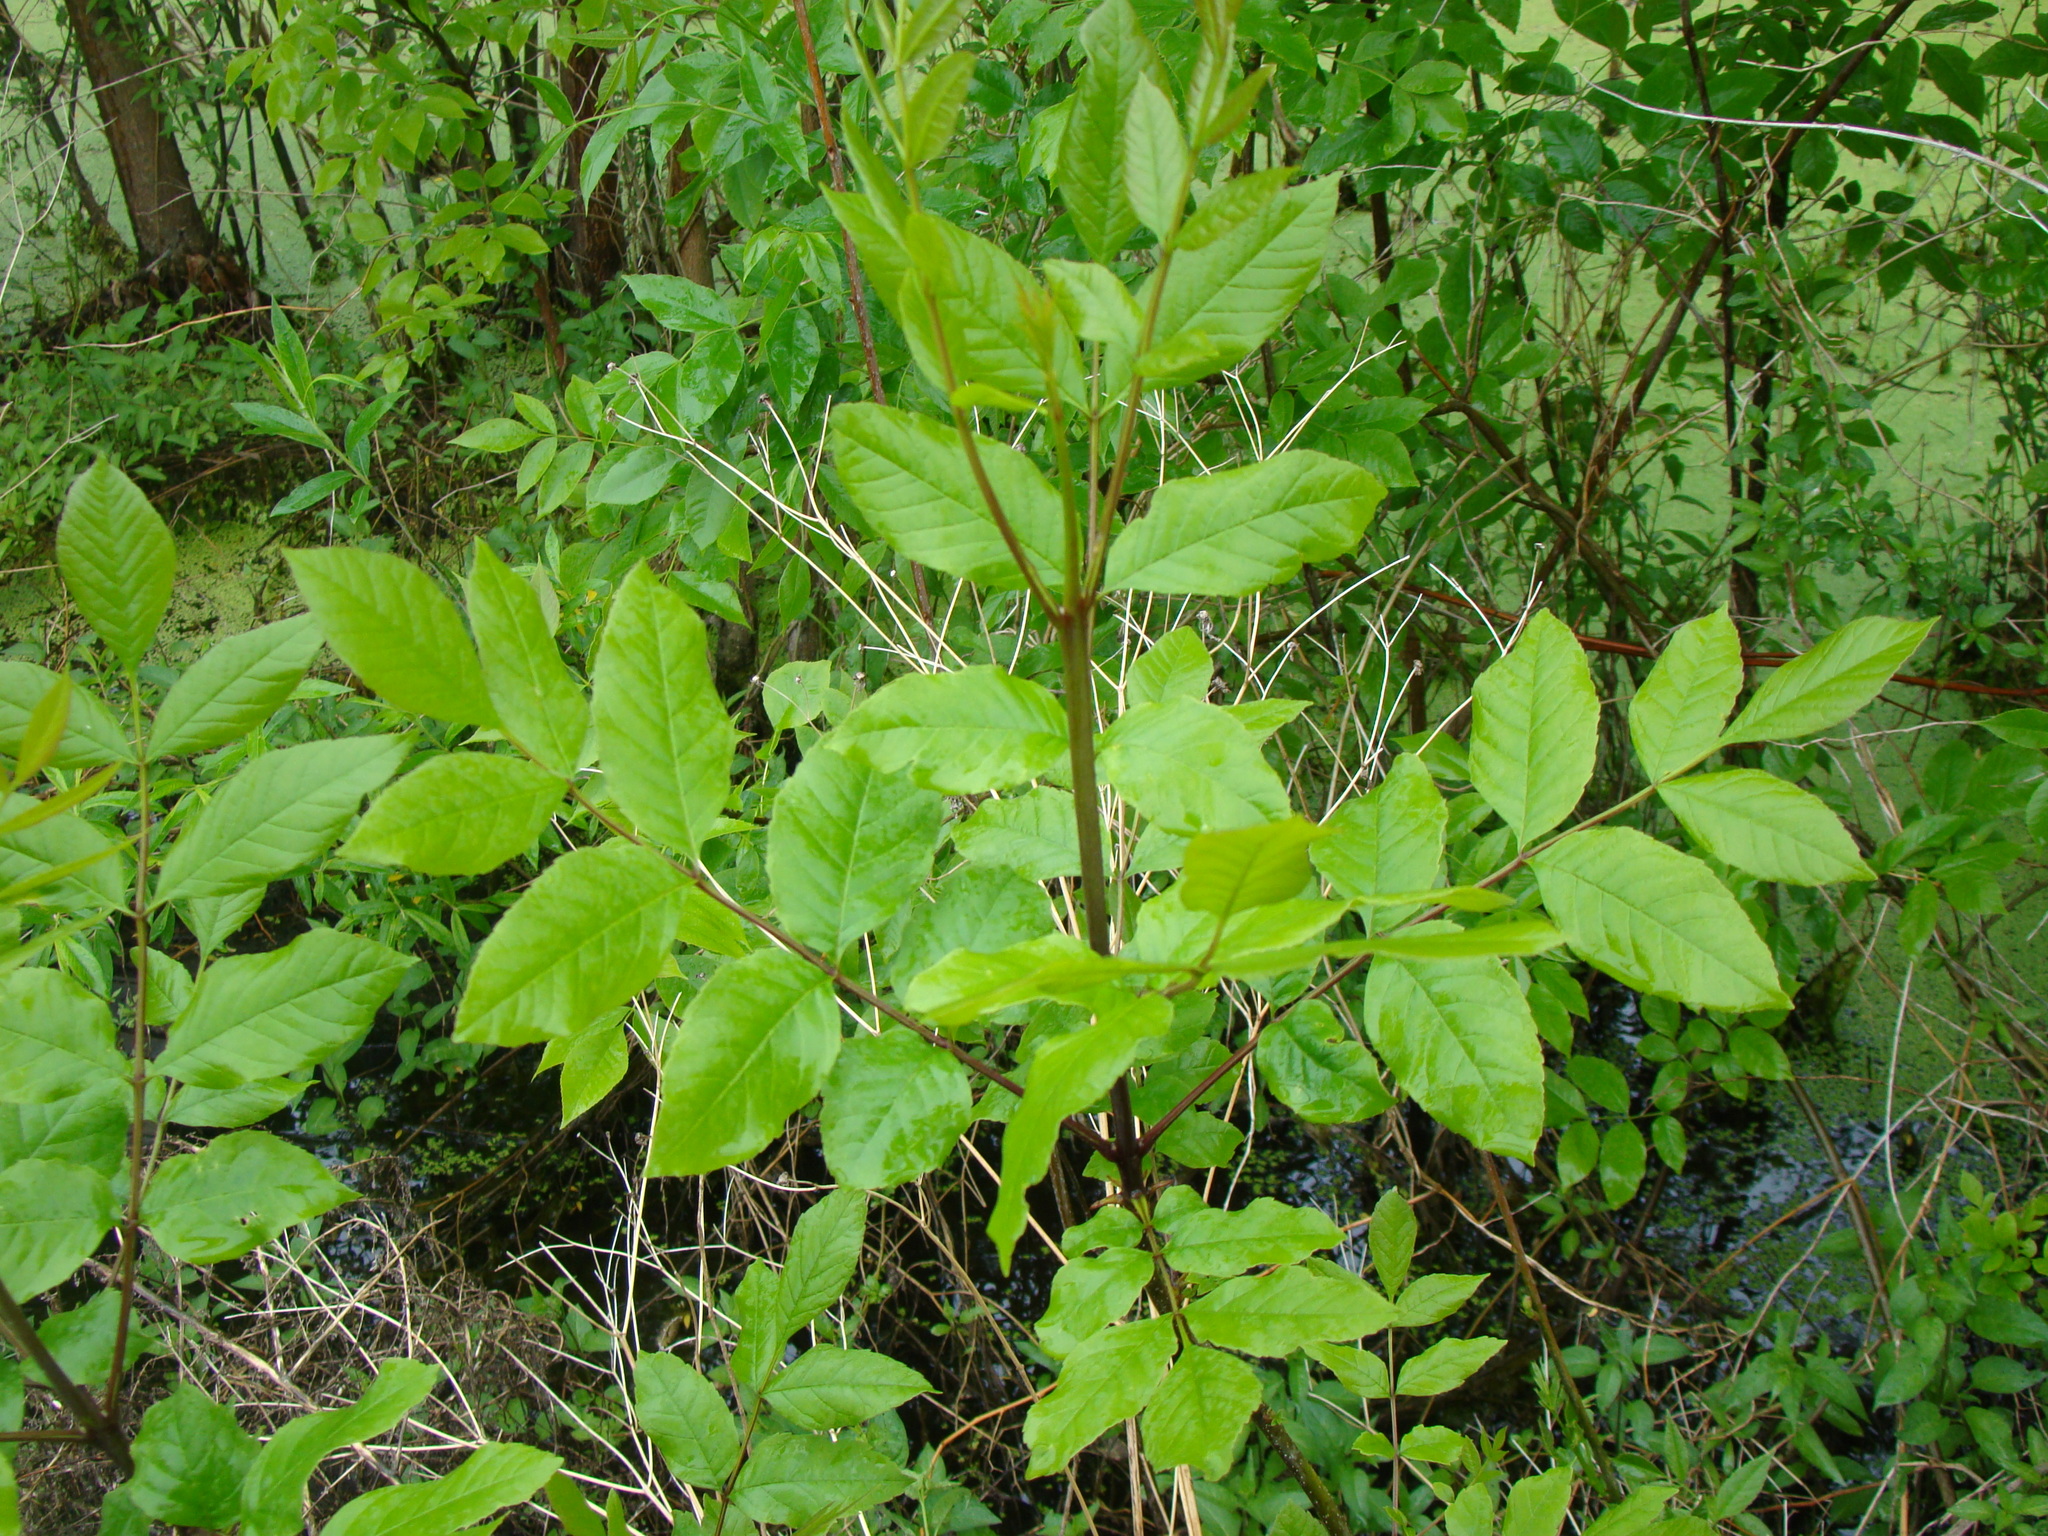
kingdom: Plantae
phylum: Tracheophyta
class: Magnoliopsida
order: Lamiales
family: Oleaceae
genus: Fraxinus
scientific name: Fraxinus pennsylvanica
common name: Green ash
